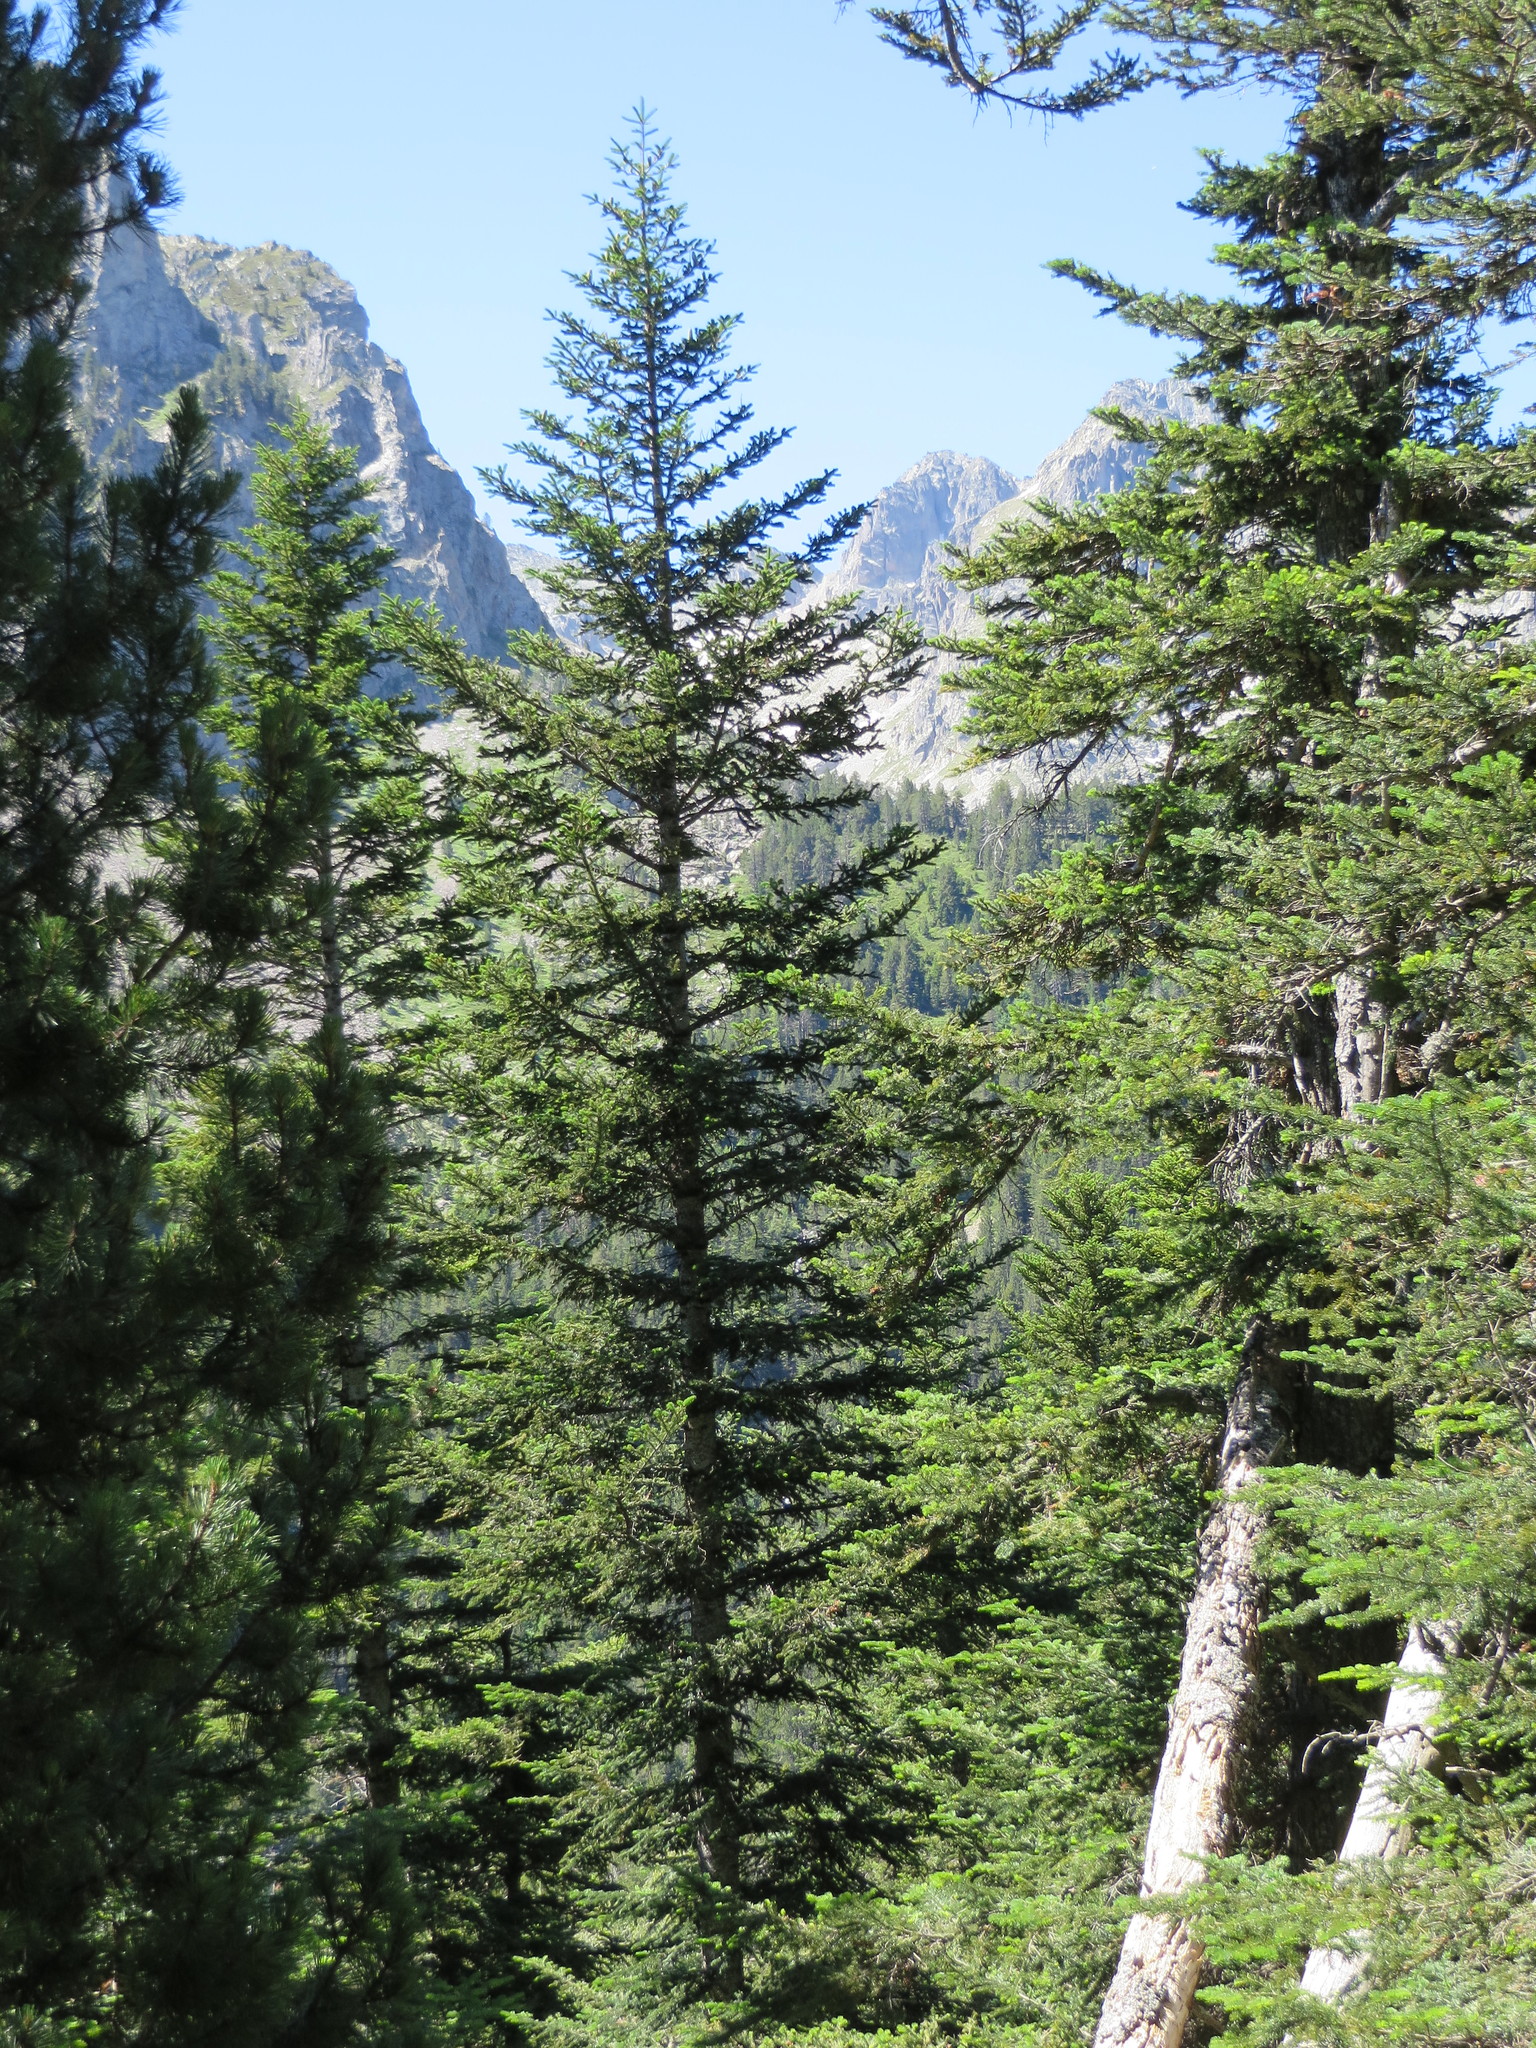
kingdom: Plantae
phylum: Tracheophyta
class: Pinopsida
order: Pinales
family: Pinaceae
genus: Abies
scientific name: Abies alba
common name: Silver fir
